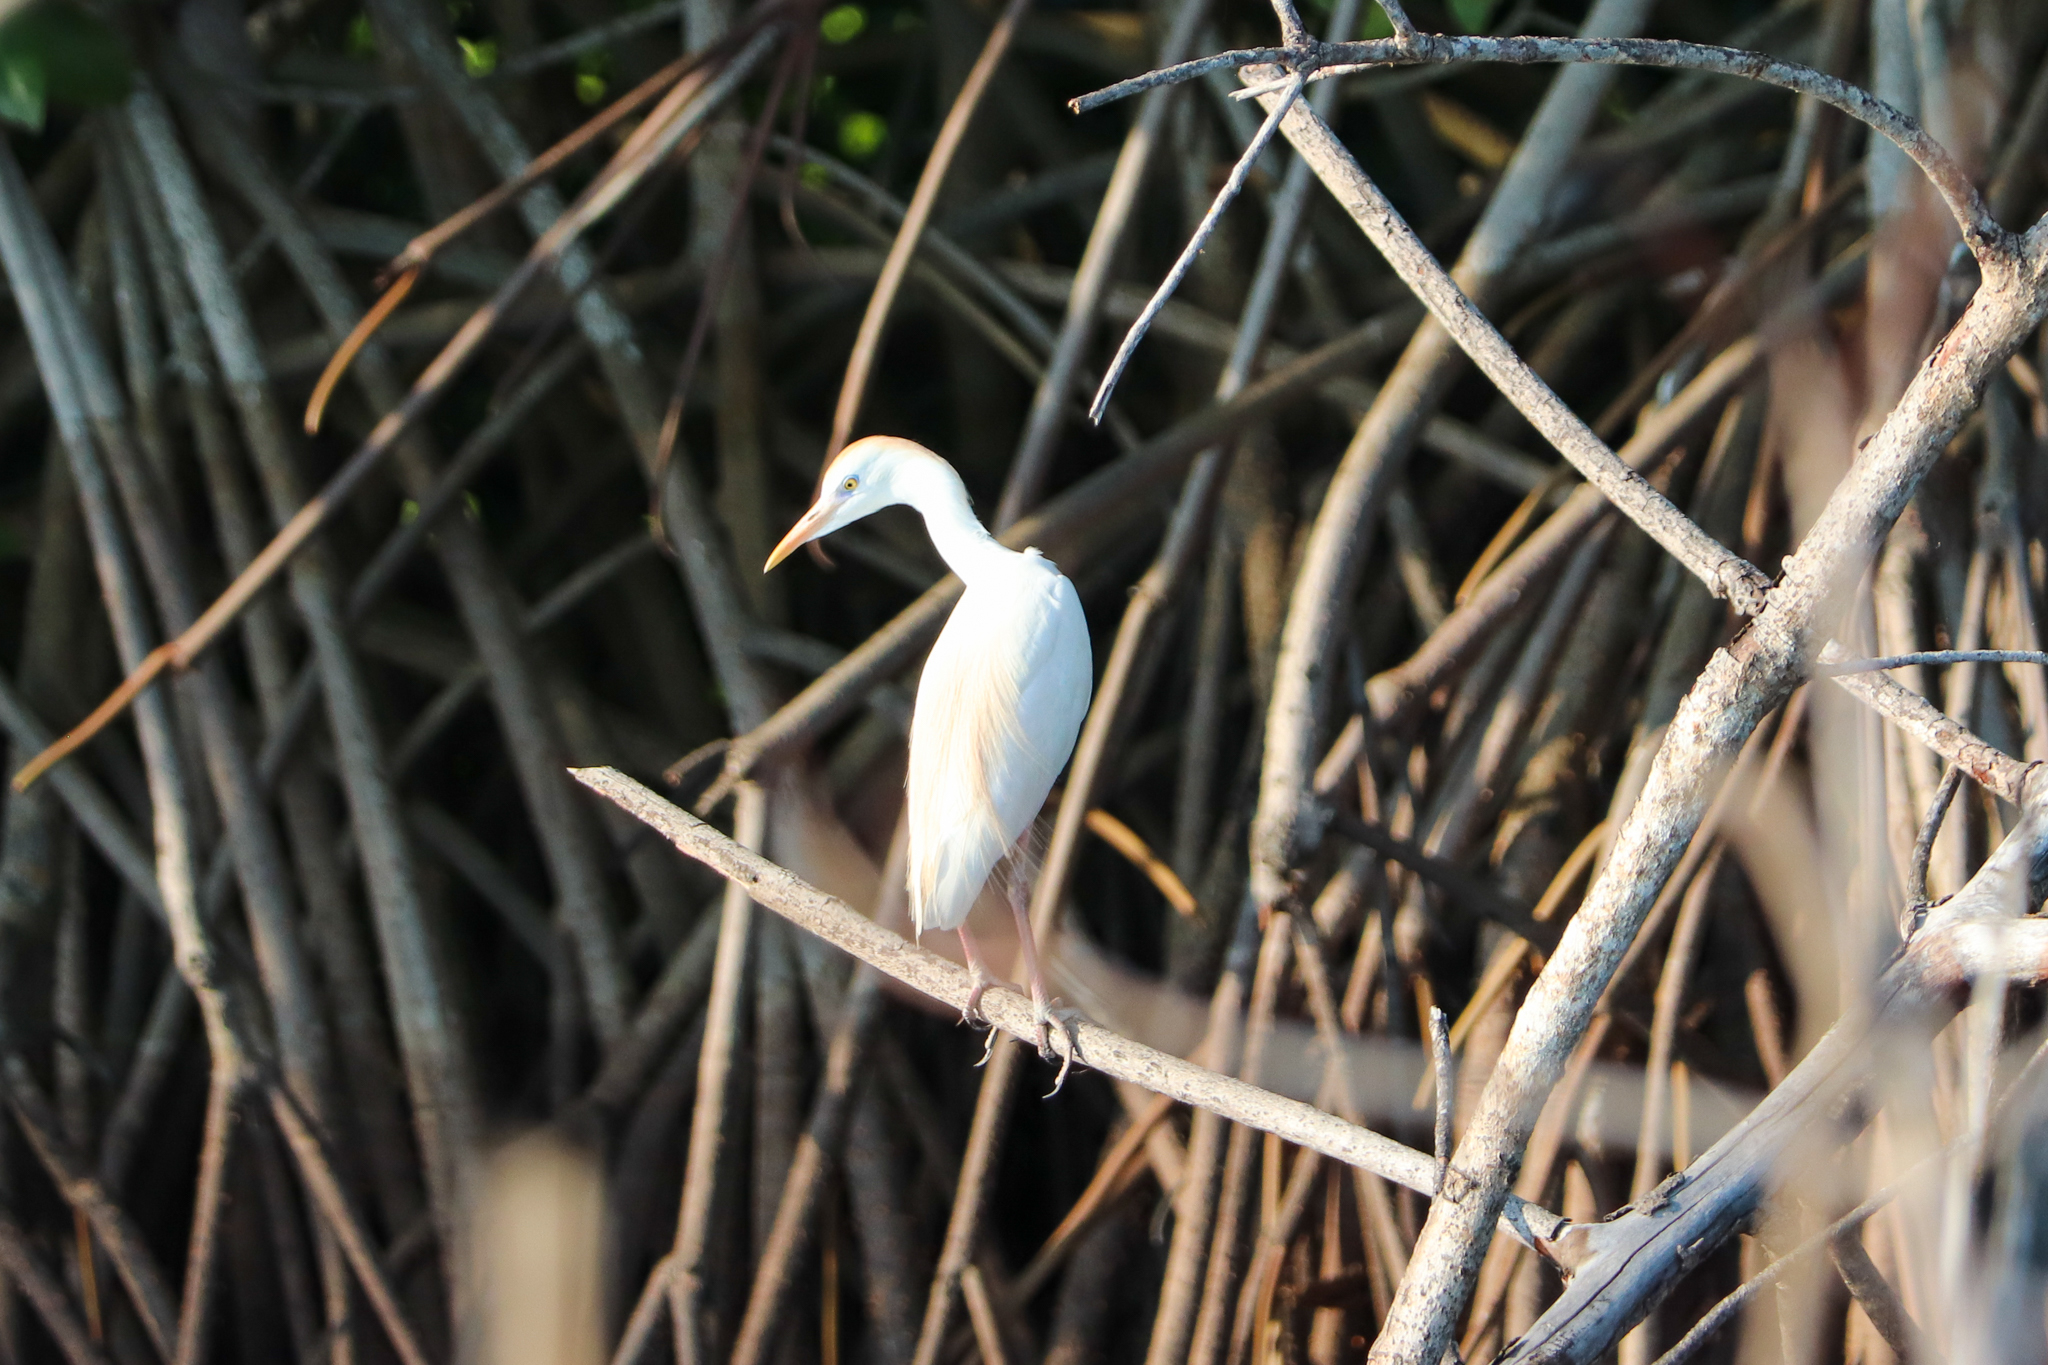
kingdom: Animalia
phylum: Chordata
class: Aves
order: Pelecaniformes
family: Ardeidae
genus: Bubulcus
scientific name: Bubulcus ibis
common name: Cattle egret
